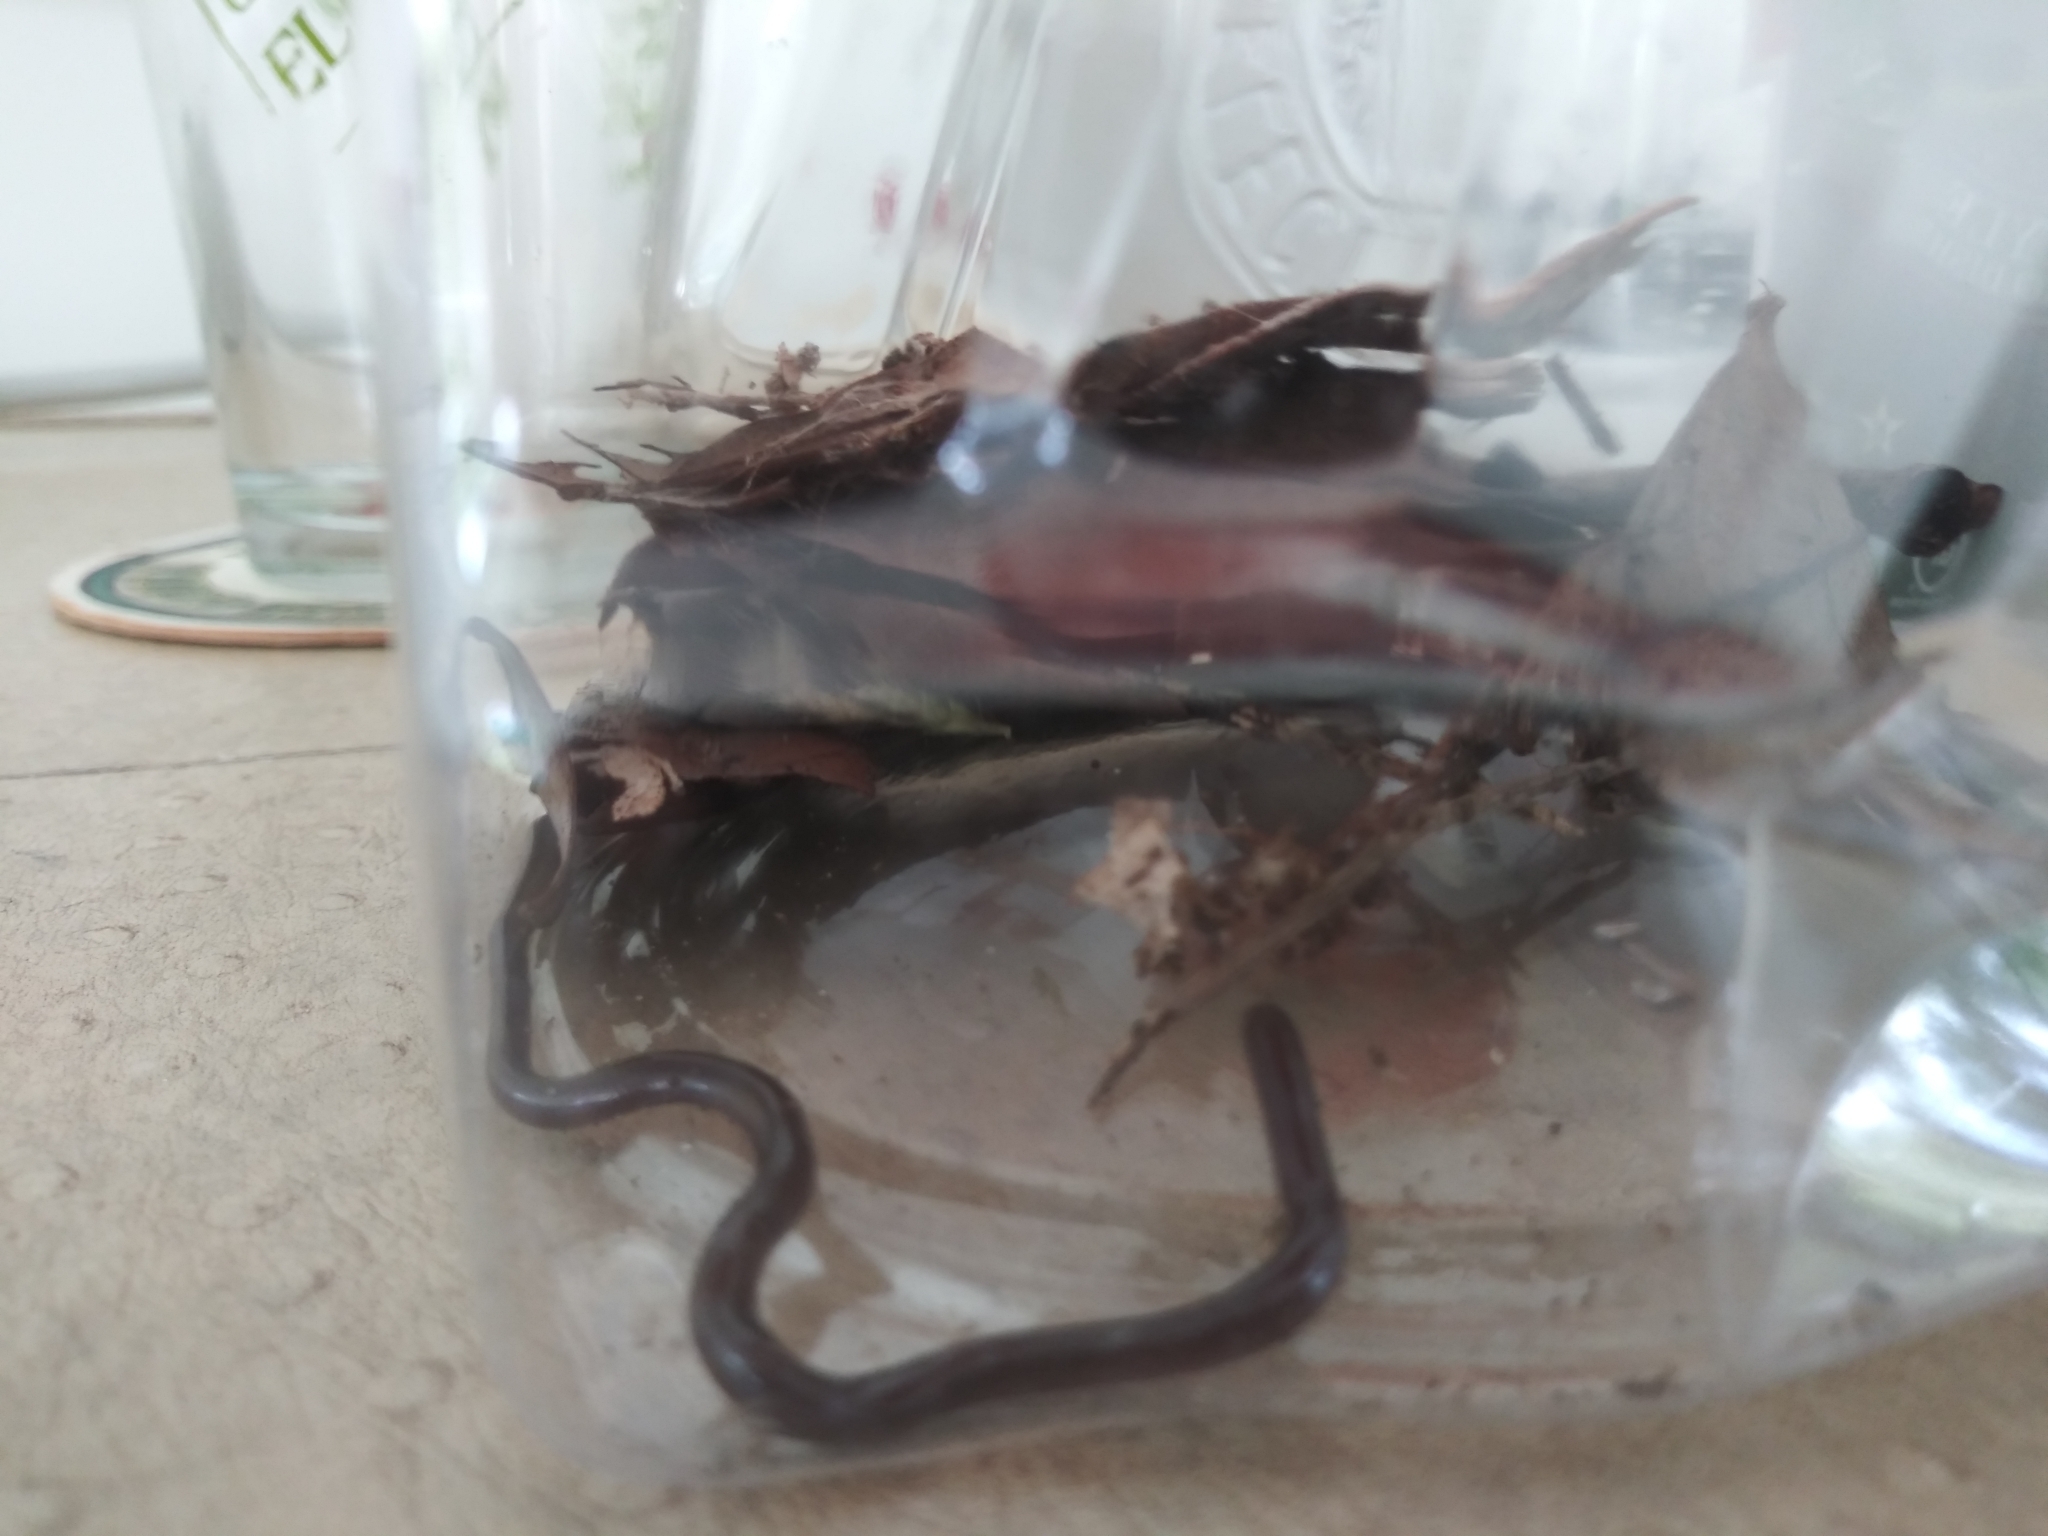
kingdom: Animalia
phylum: Chordata
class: Squamata
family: Typhlopidae
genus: Indotyphlops
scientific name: Indotyphlops braminus
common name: Brahminy blindsnake
